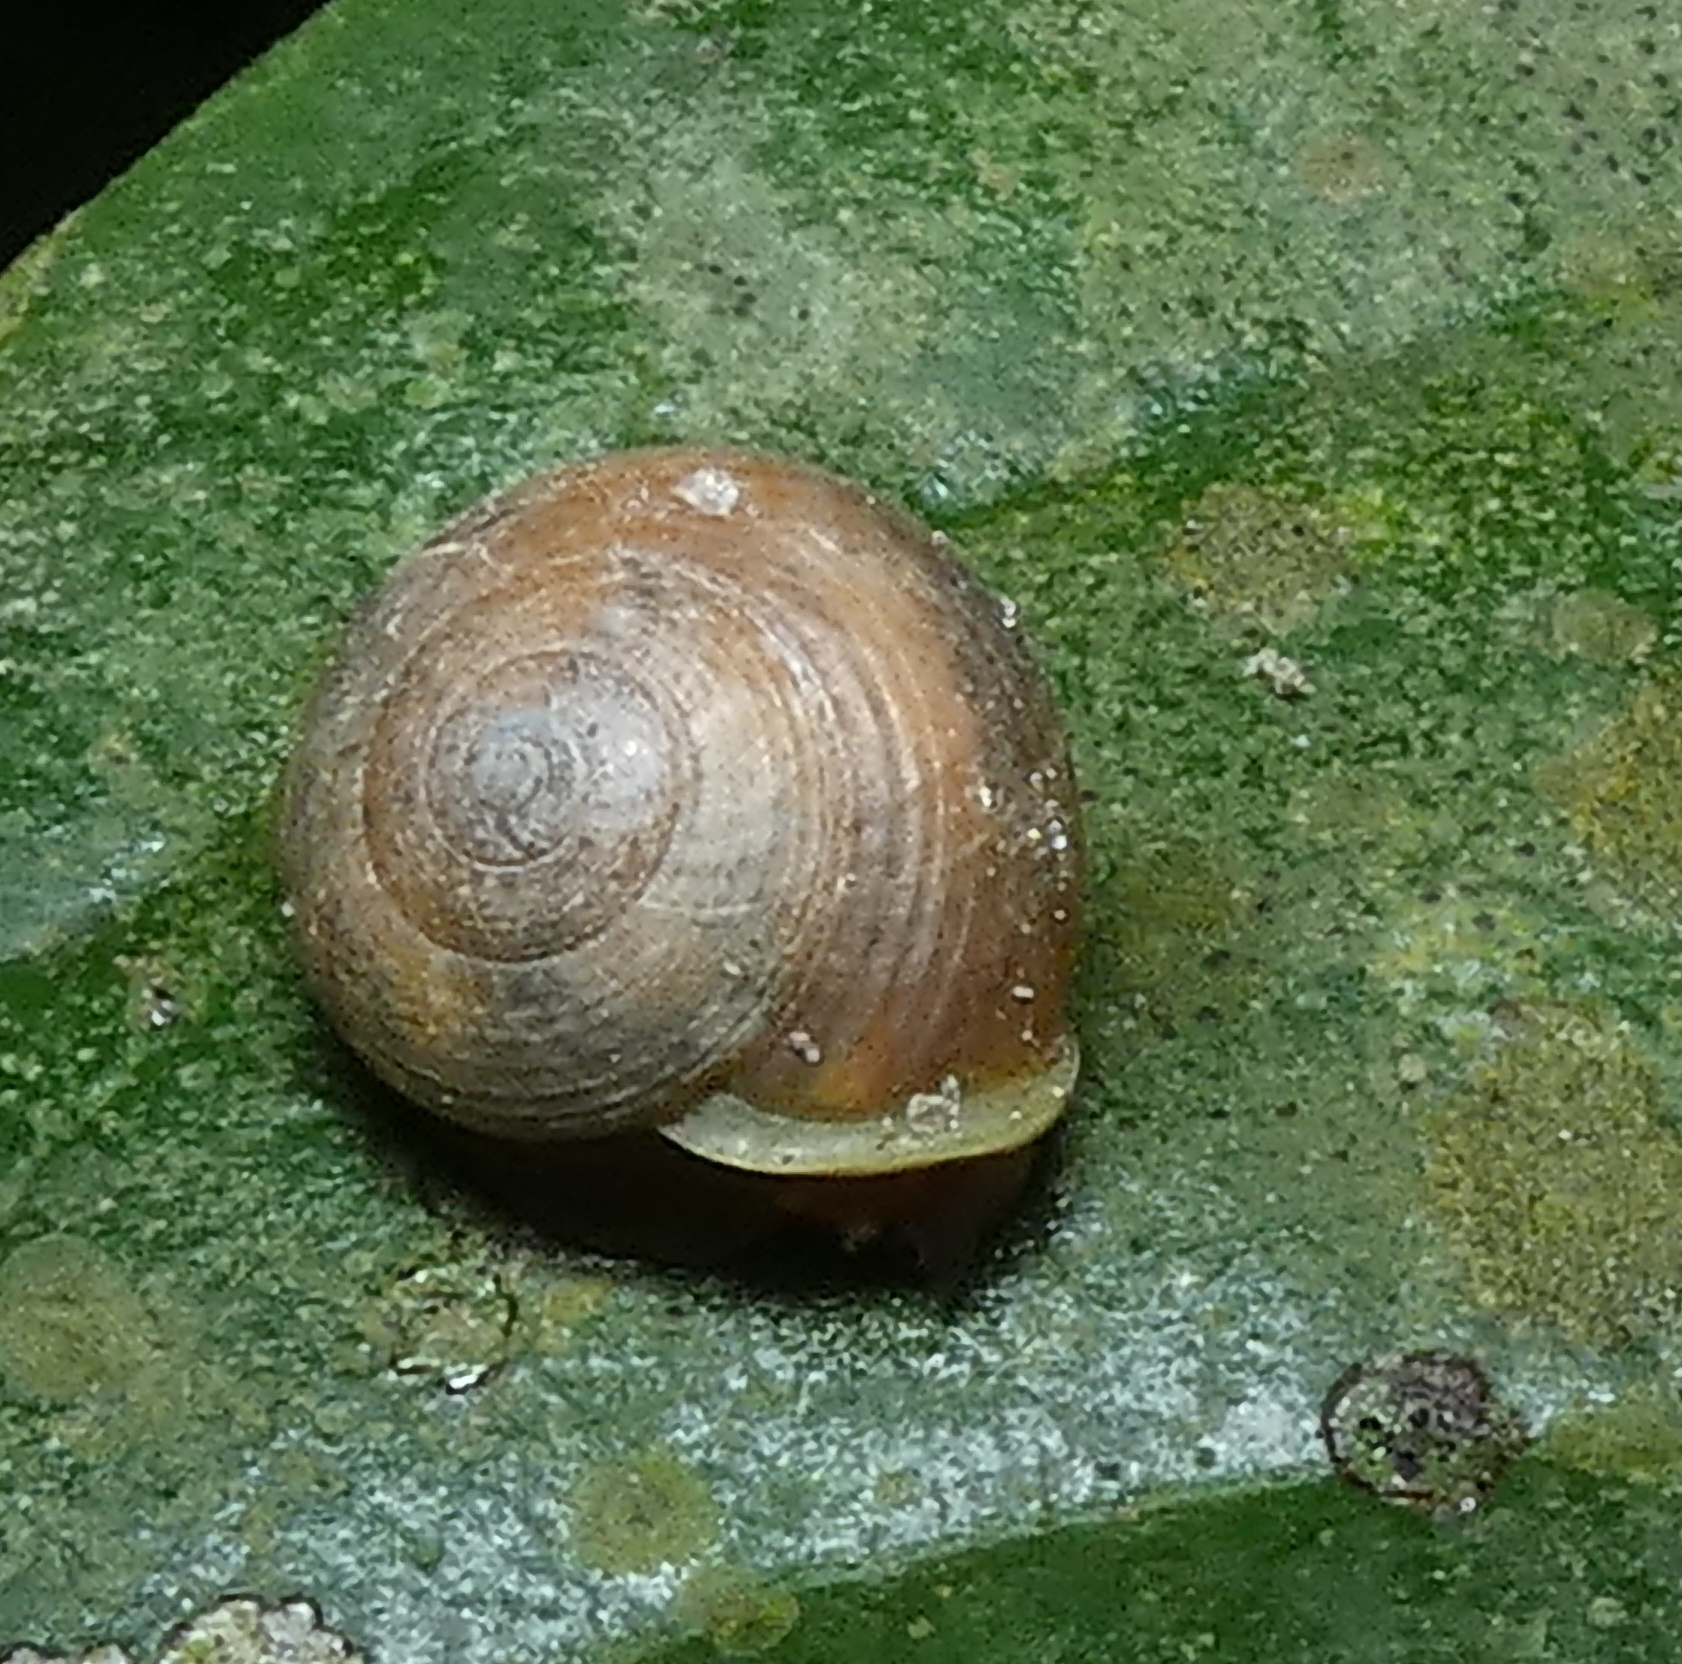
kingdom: Animalia
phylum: Mollusca
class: Gastropoda
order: Cycloneritida
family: Helicinidae
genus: Helicina
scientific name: Helicina rotundata
